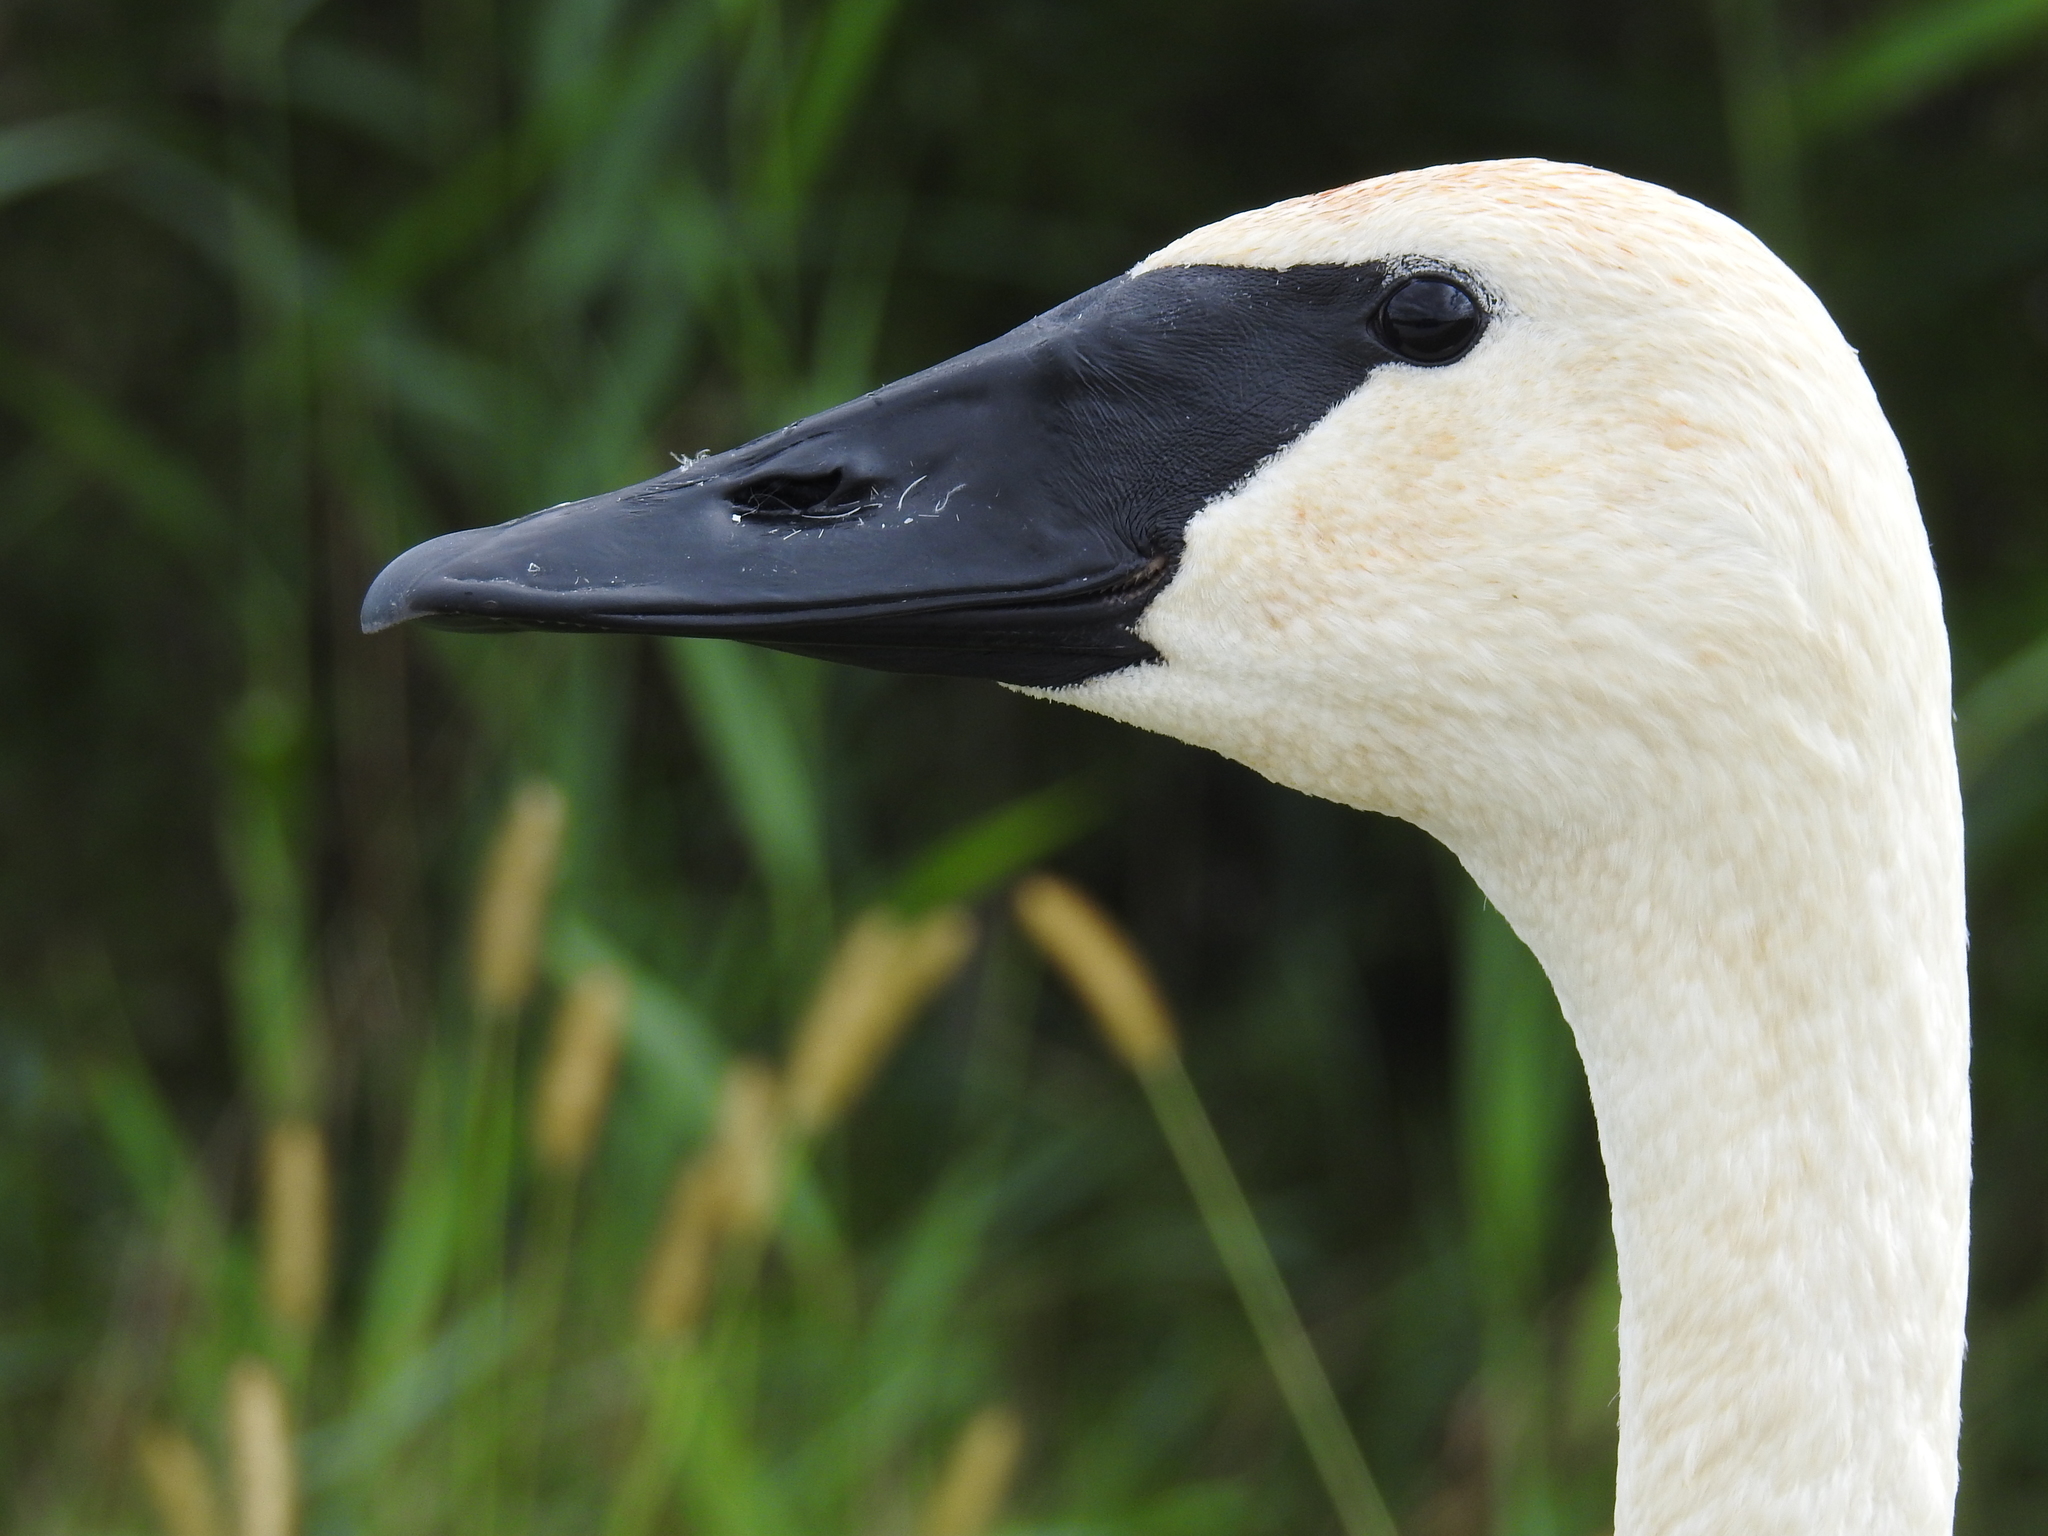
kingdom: Animalia
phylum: Chordata
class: Aves
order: Anseriformes
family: Anatidae
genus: Cygnus
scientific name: Cygnus buccinator
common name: Trumpeter swan
